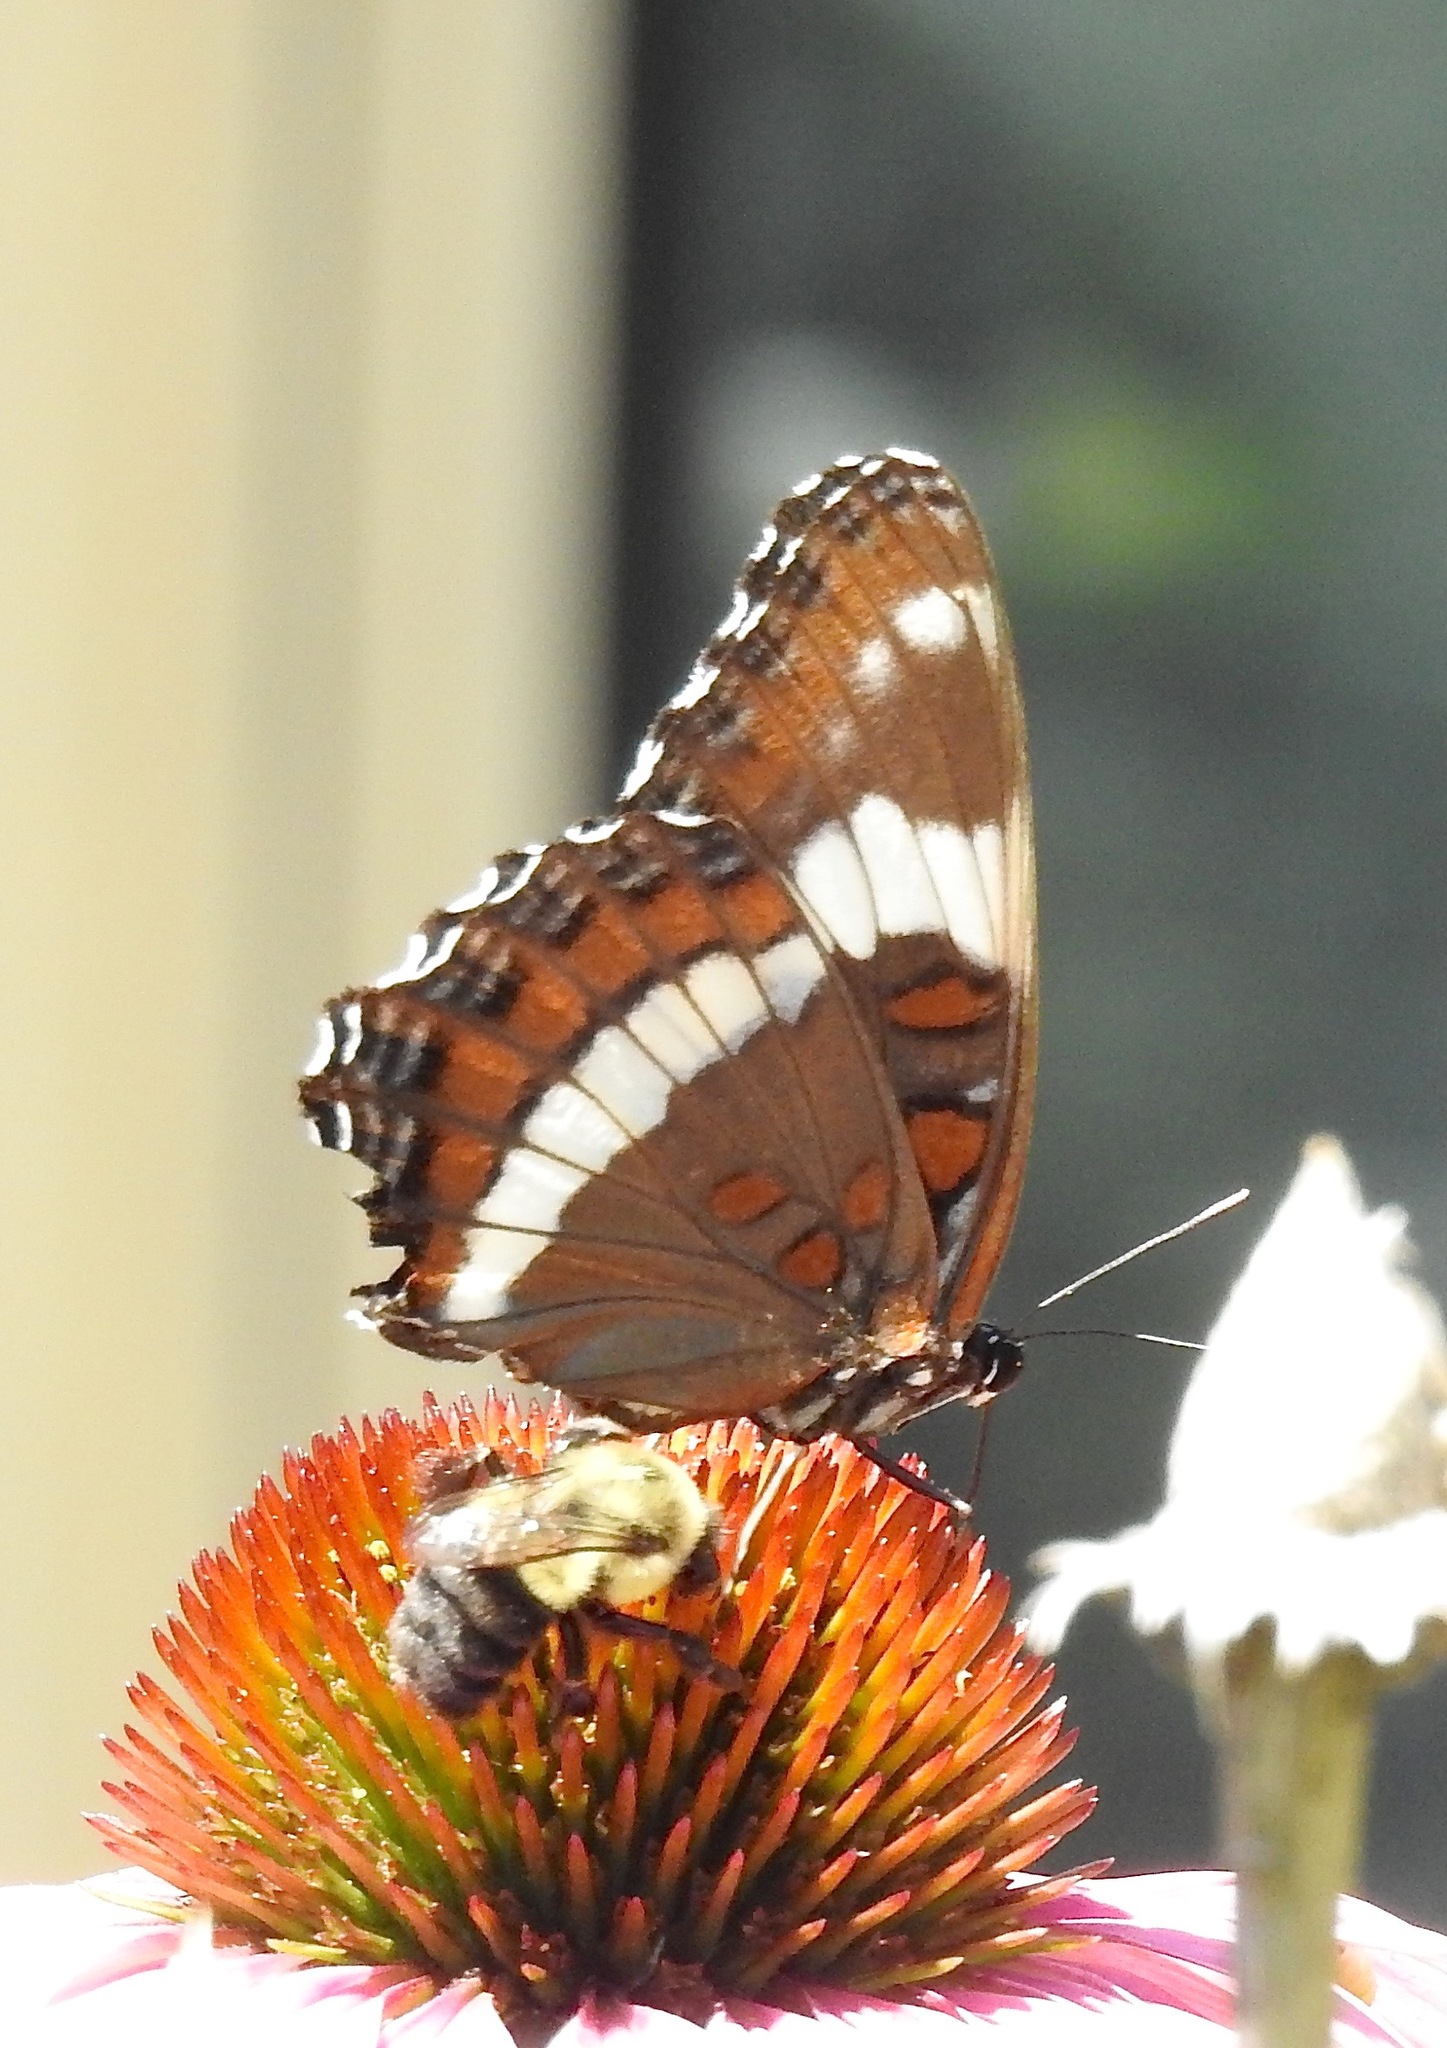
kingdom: Animalia
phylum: Arthropoda
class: Insecta
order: Lepidoptera
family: Nymphalidae
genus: Limenitis
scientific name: Limenitis arthemis
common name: Red-spotted admiral
